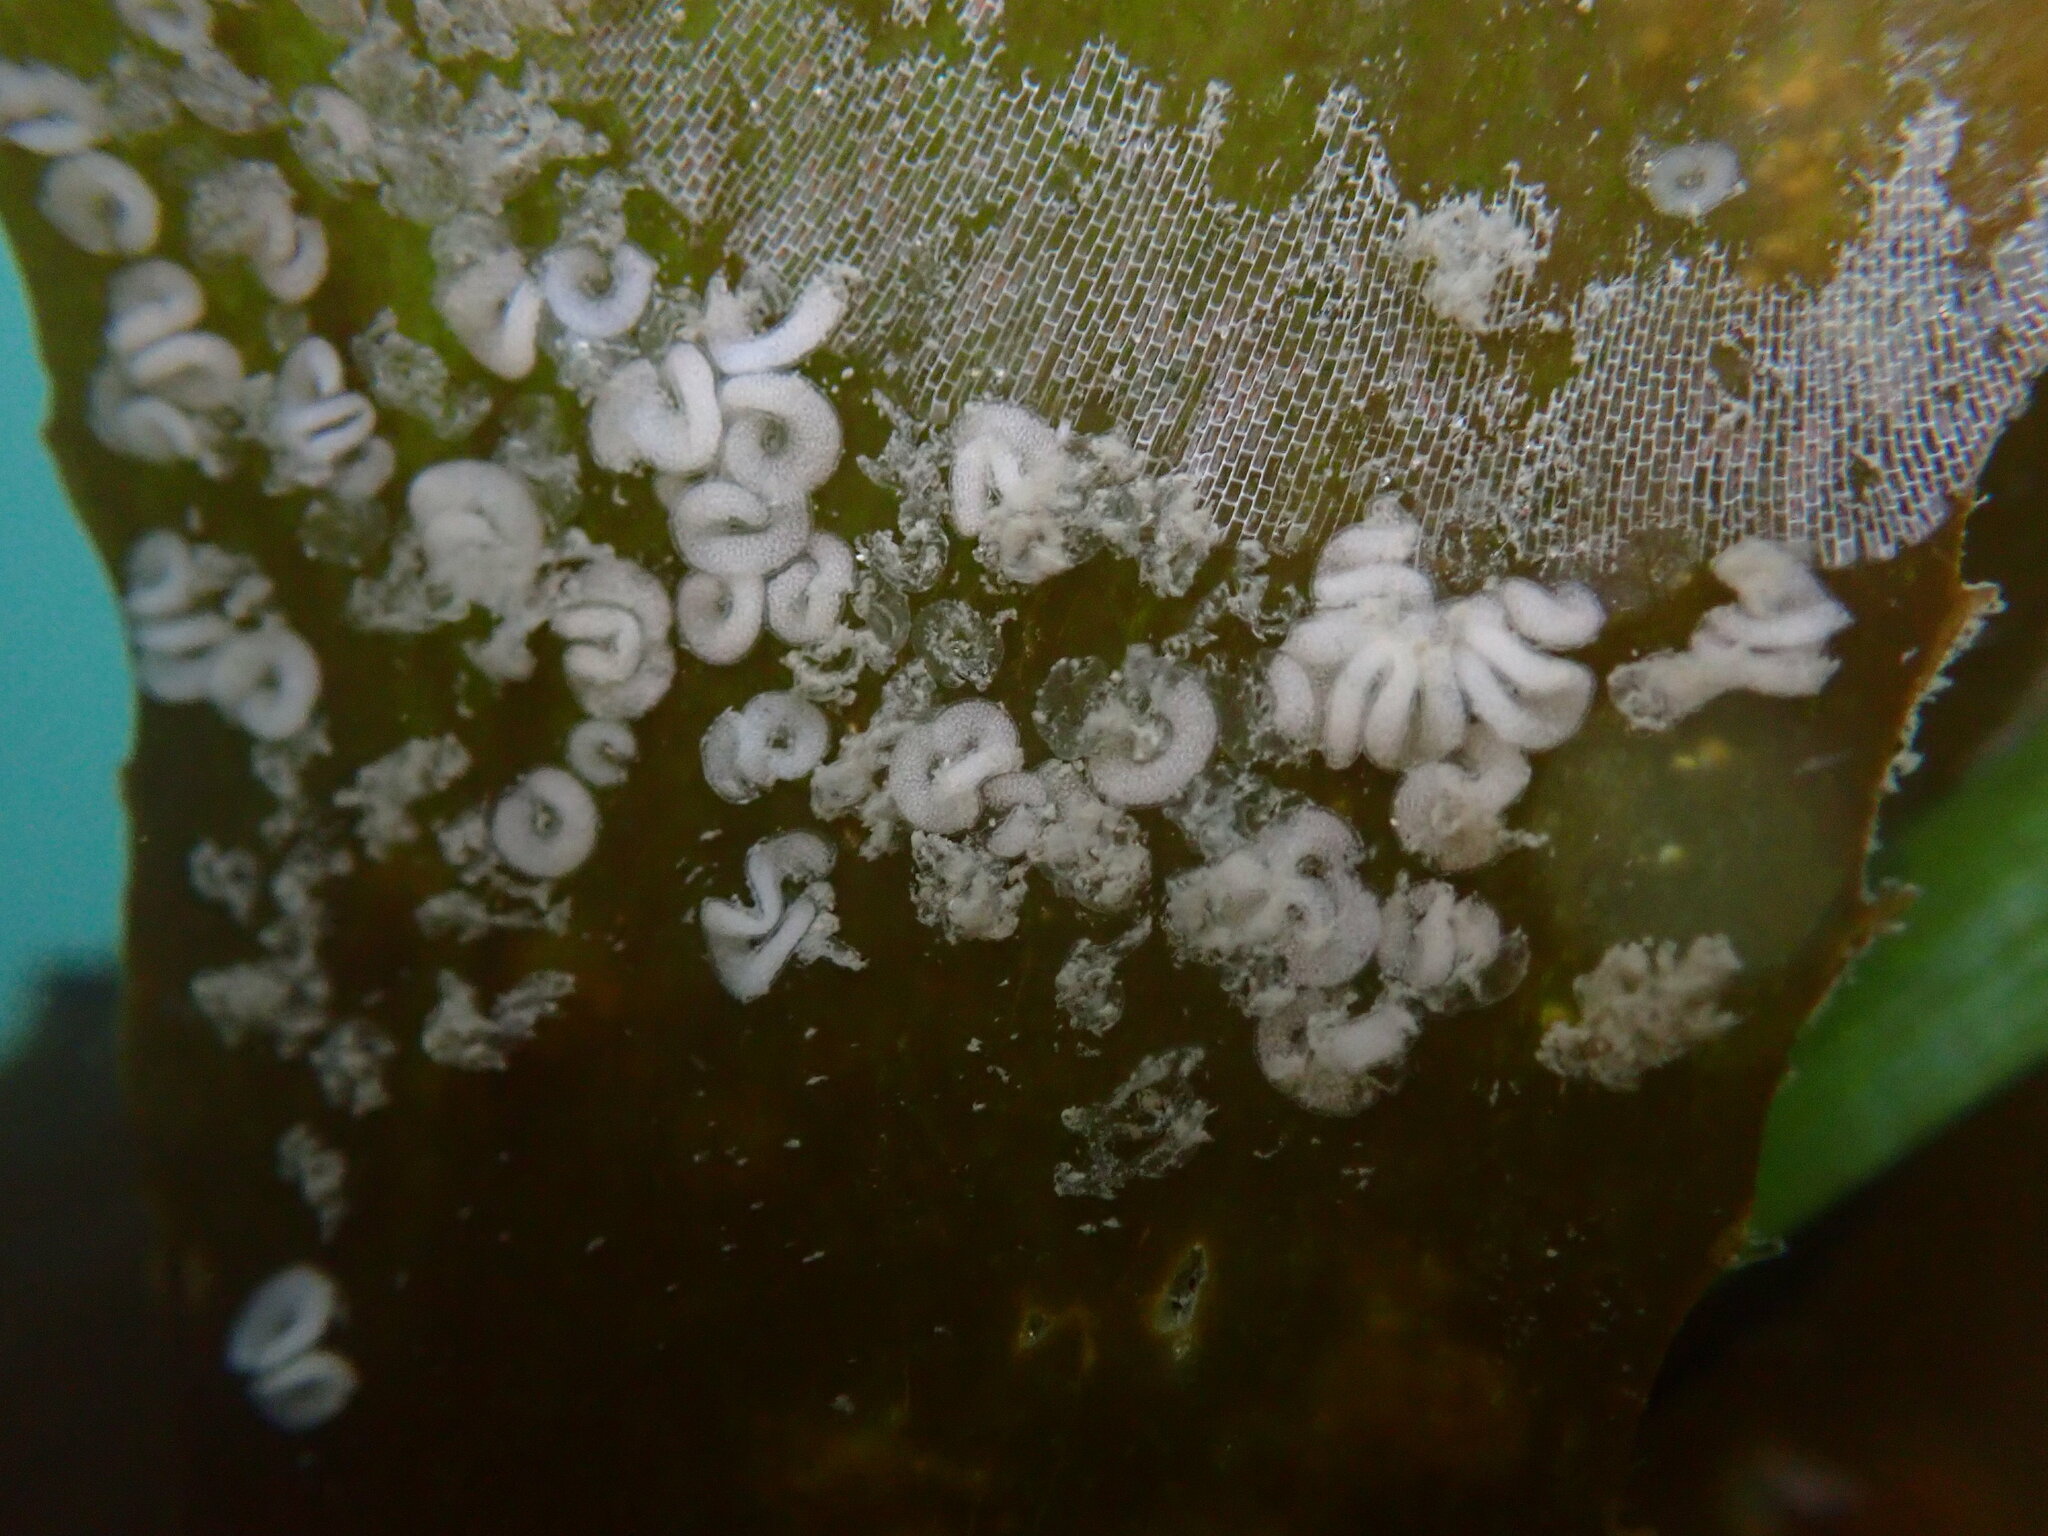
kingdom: Animalia
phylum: Mollusca
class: Gastropoda
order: Nudibranchia
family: Corambidae
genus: Corambe
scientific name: Corambe steinbergae
